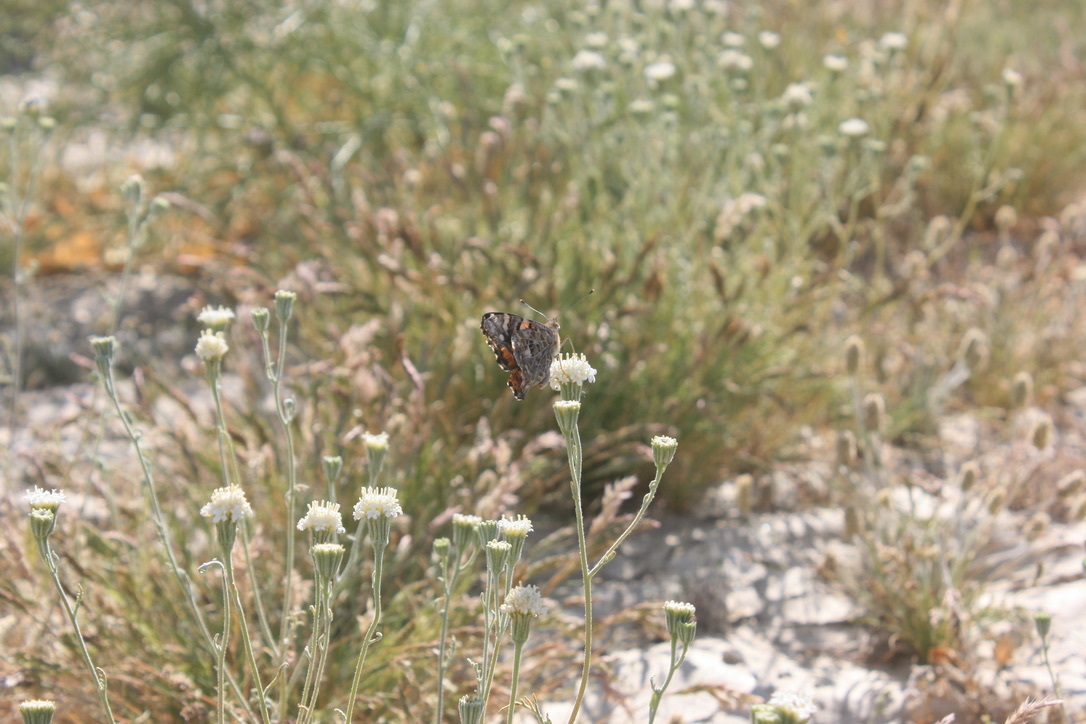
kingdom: Animalia
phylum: Arthropoda
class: Insecta
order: Lepidoptera
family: Nymphalidae
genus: Vanessa
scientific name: Vanessa cardui
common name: Painted lady
